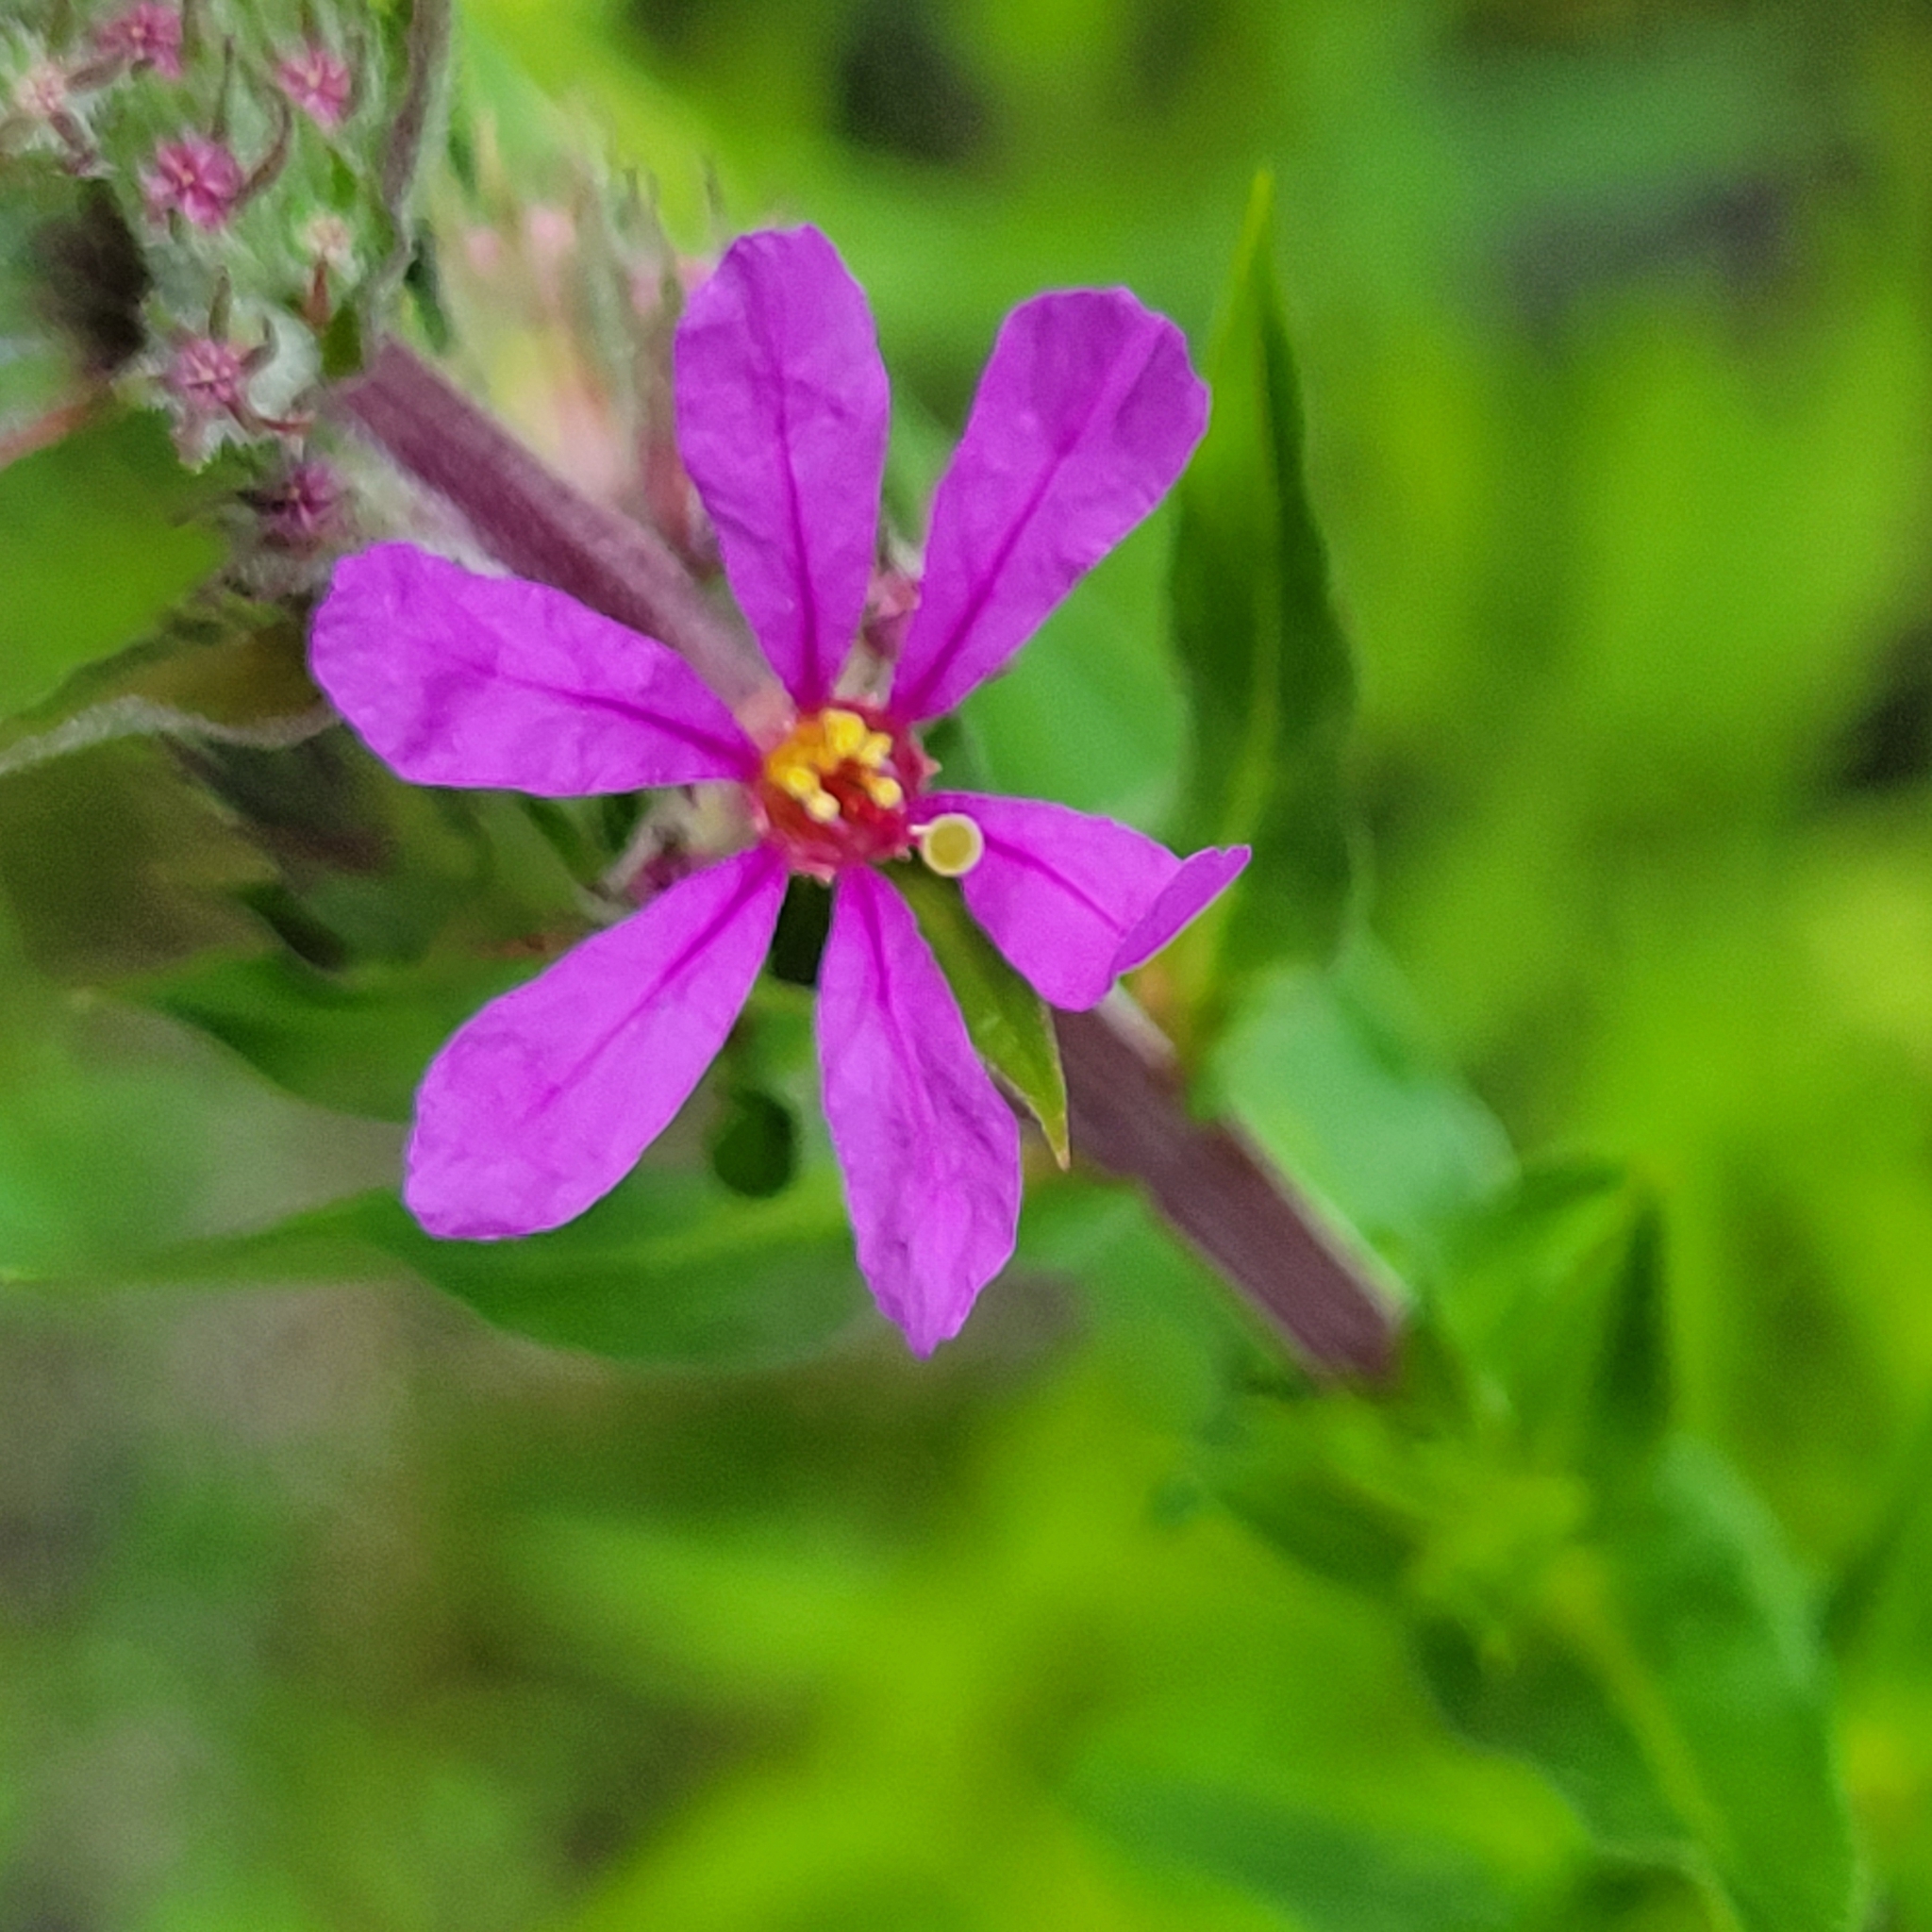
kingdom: Plantae
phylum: Tracheophyta
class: Magnoliopsida
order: Myrtales
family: Lythraceae
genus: Lythrum
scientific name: Lythrum salicaria
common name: Purple loosestrife
